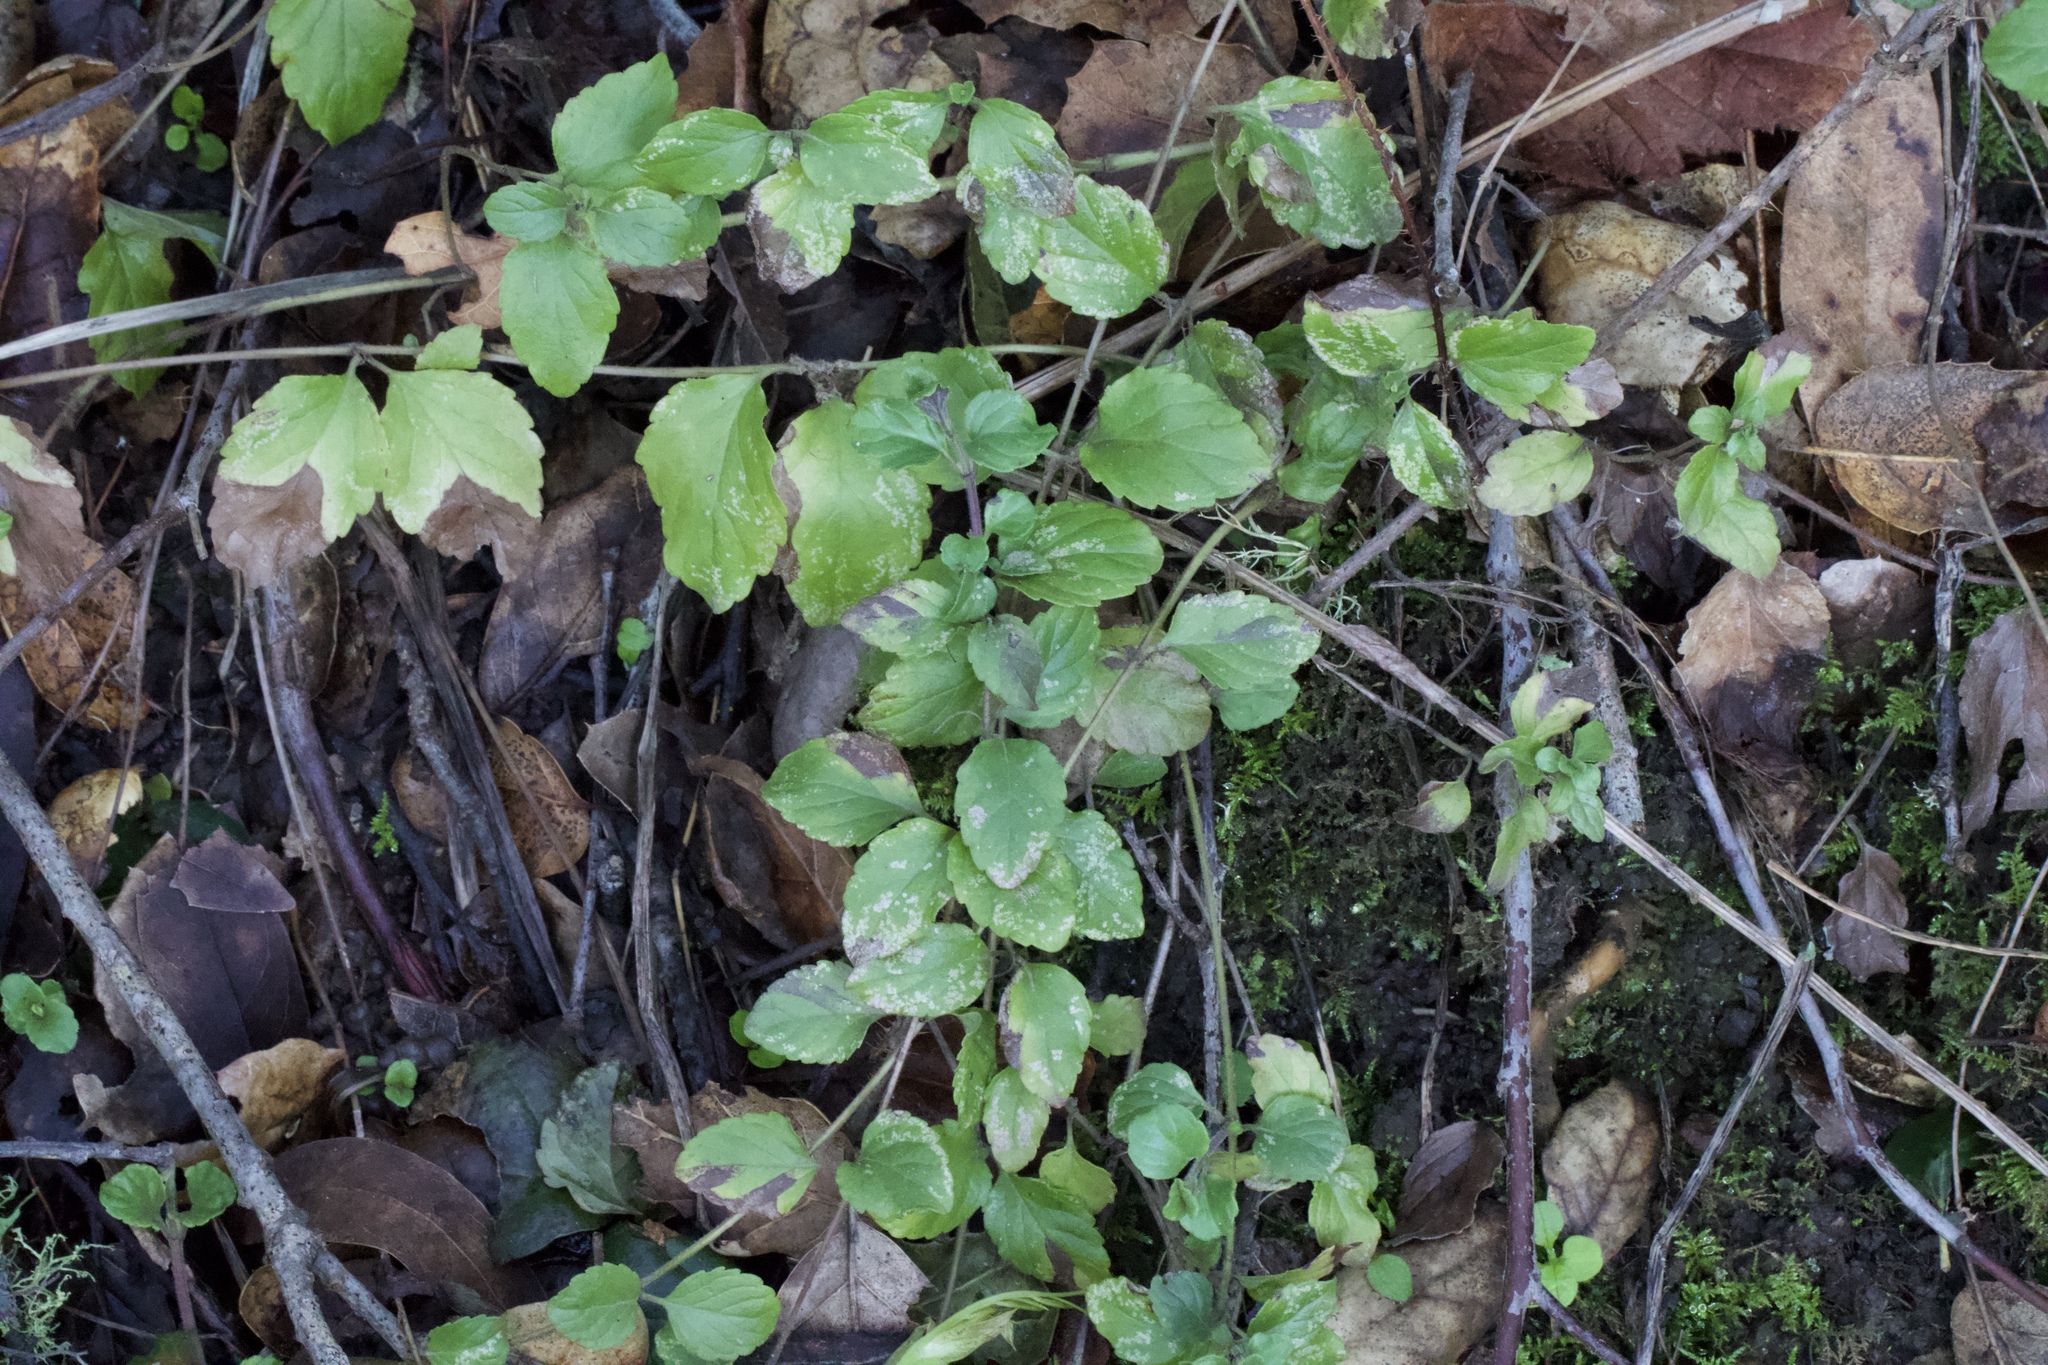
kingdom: Plantae
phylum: Tracheophyta
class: Magnoliopsida
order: Lamiales
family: Lamiaceae
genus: Micromeria
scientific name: Micromeria douglasii
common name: Yerba buena
